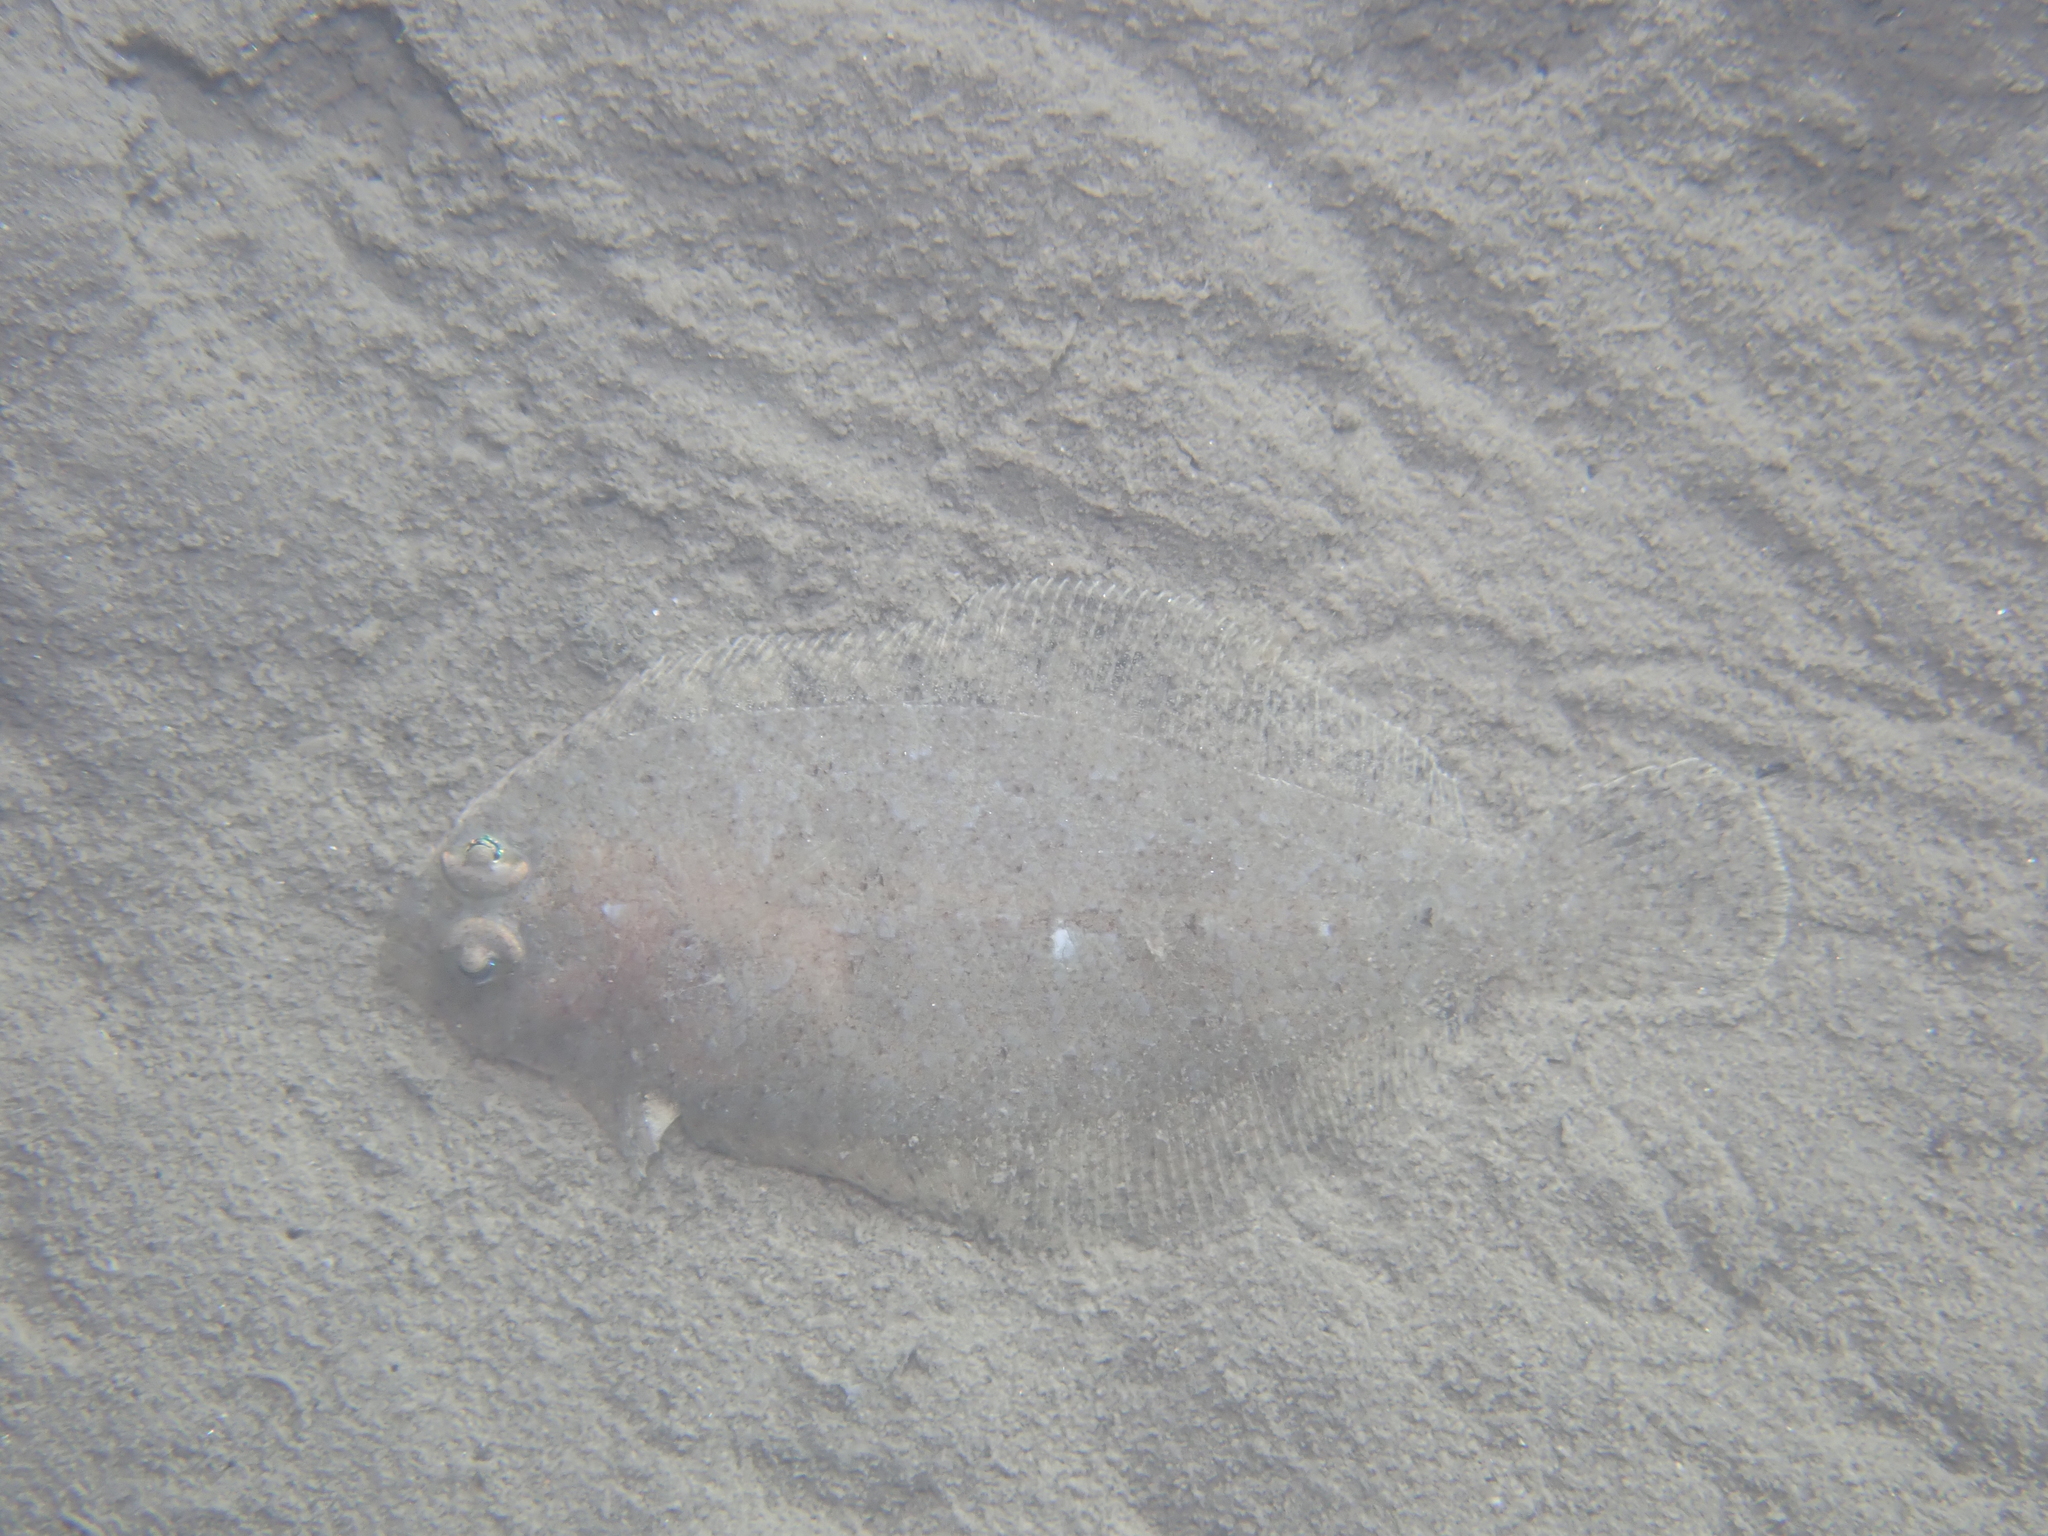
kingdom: Animalia
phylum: Chordata
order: Pleuronectiformes
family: Bothidae
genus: Arnoglossus
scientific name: Arnoglossus laterna
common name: Scaldfish
